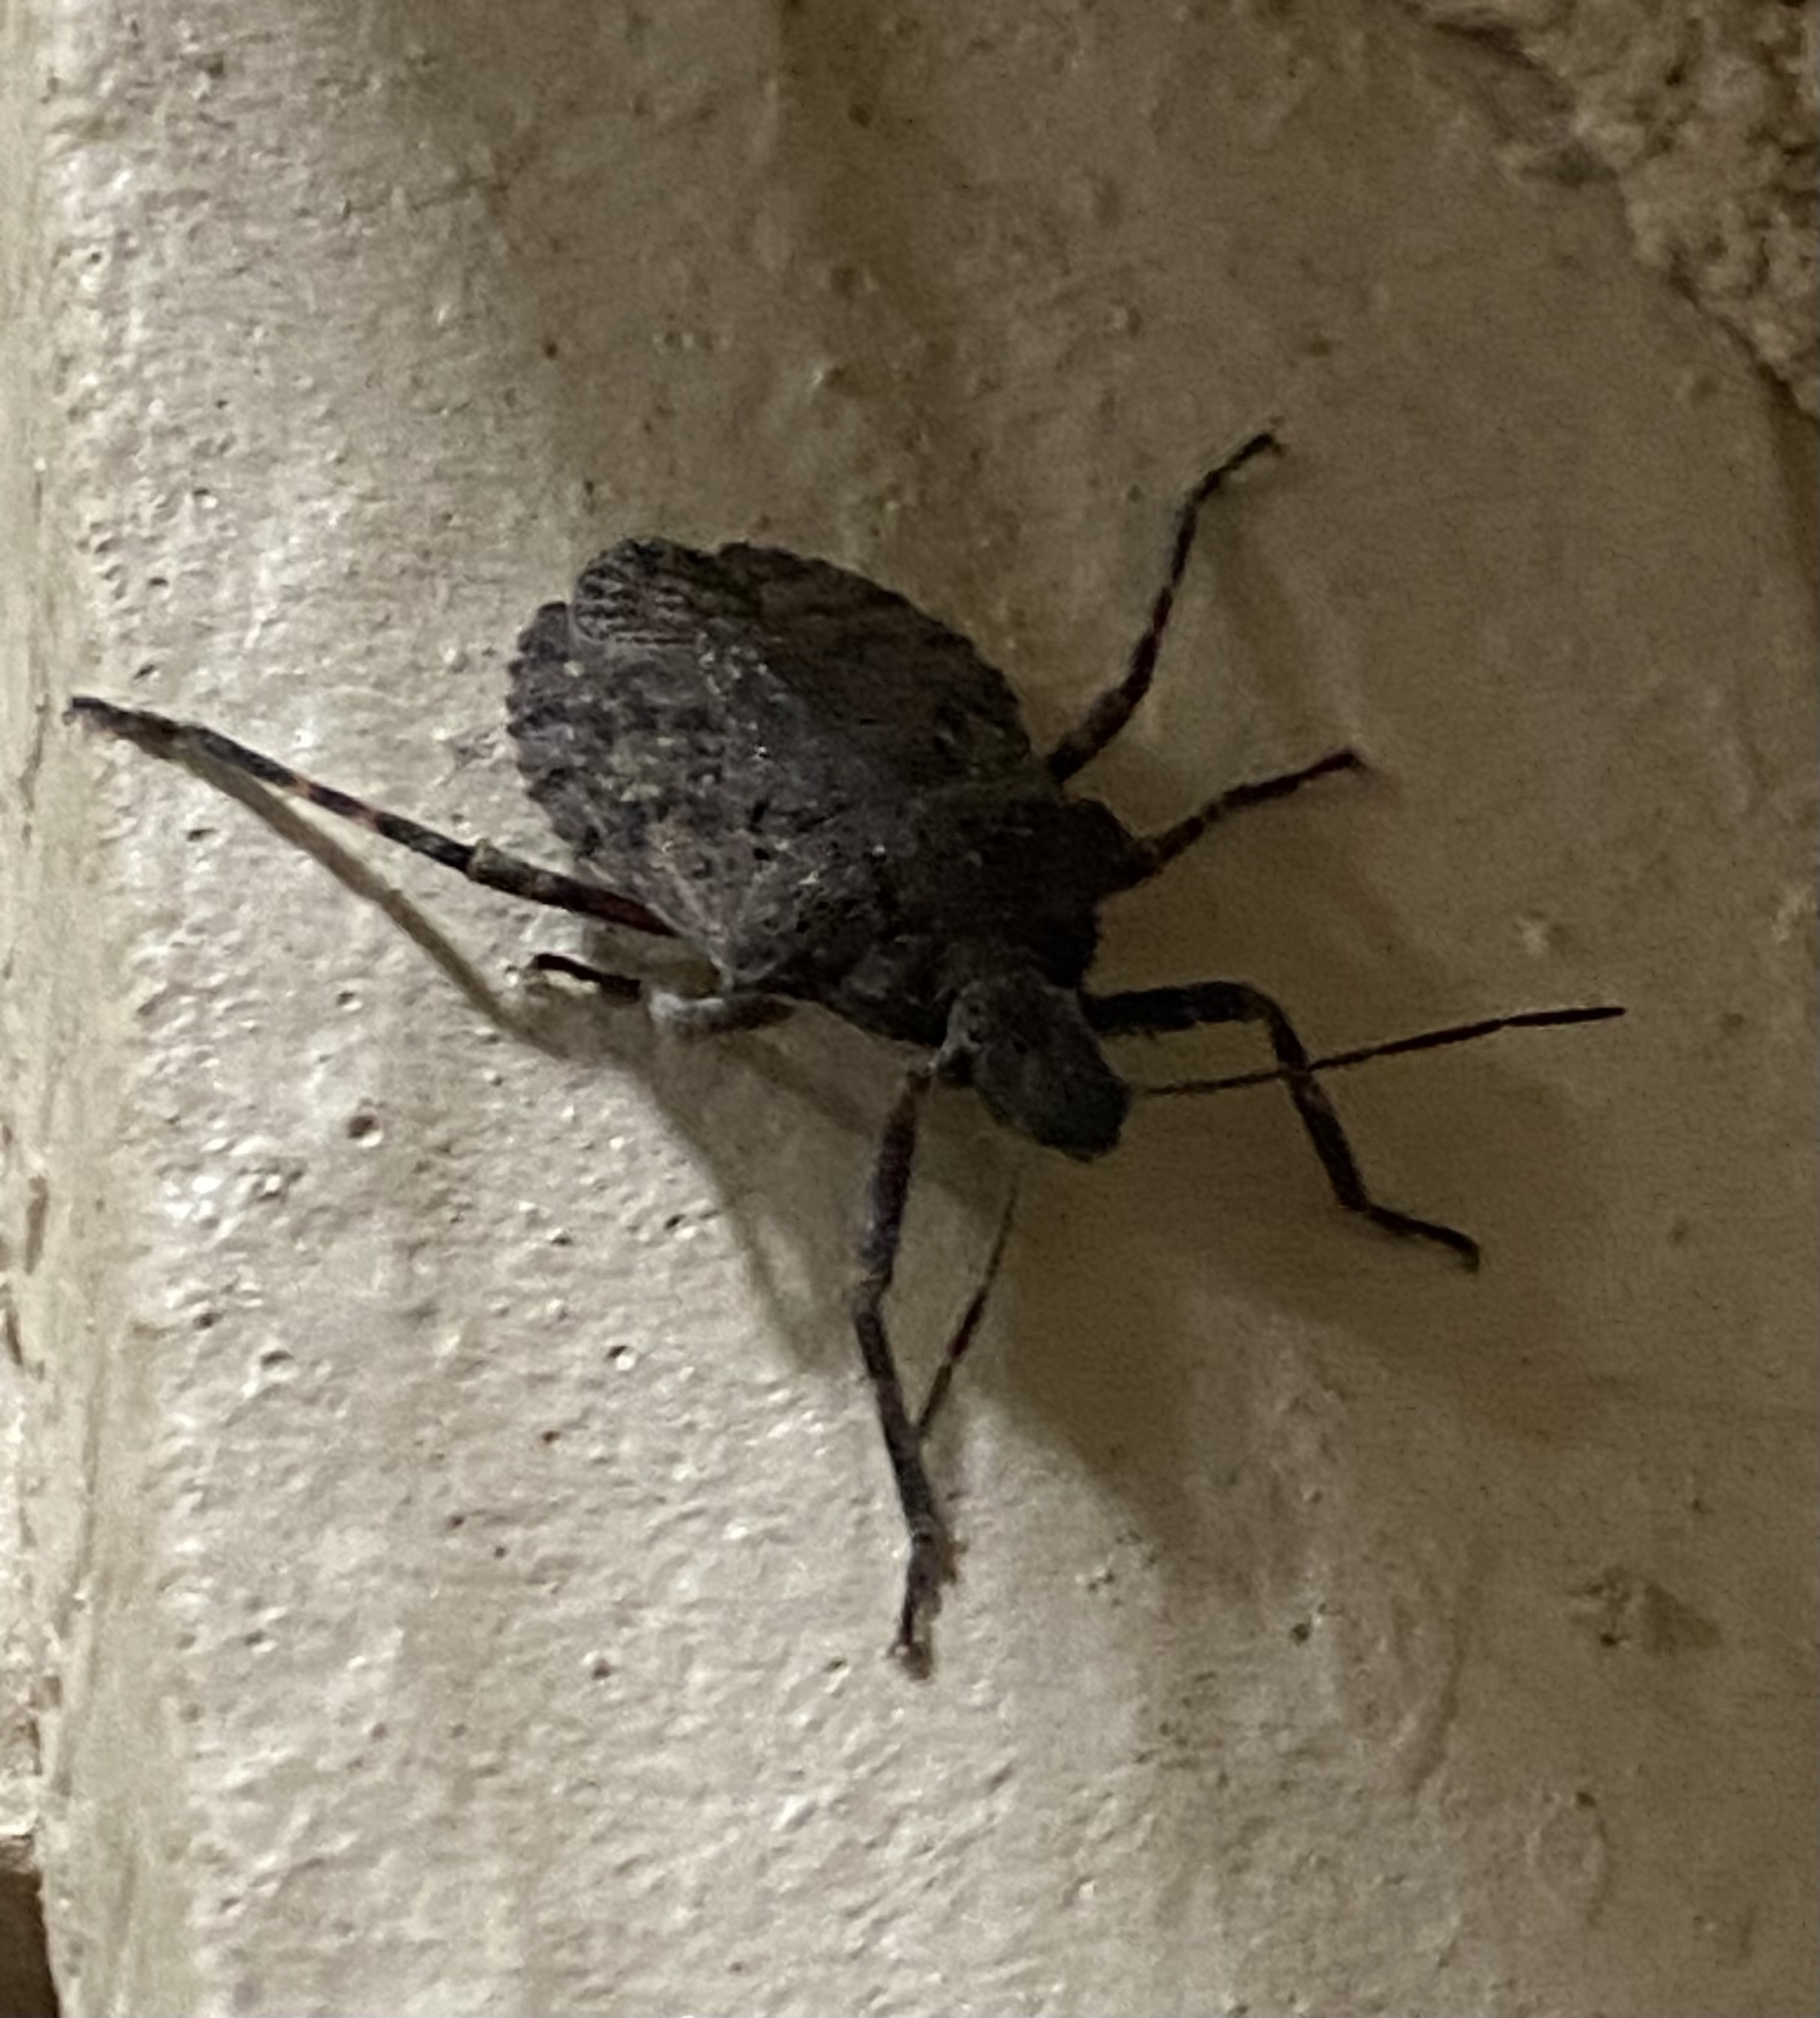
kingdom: Animalia
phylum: Arthropoda
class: Insecta
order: Hemiptera
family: Pentatomidae
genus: Brochymena
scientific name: Brochymena
